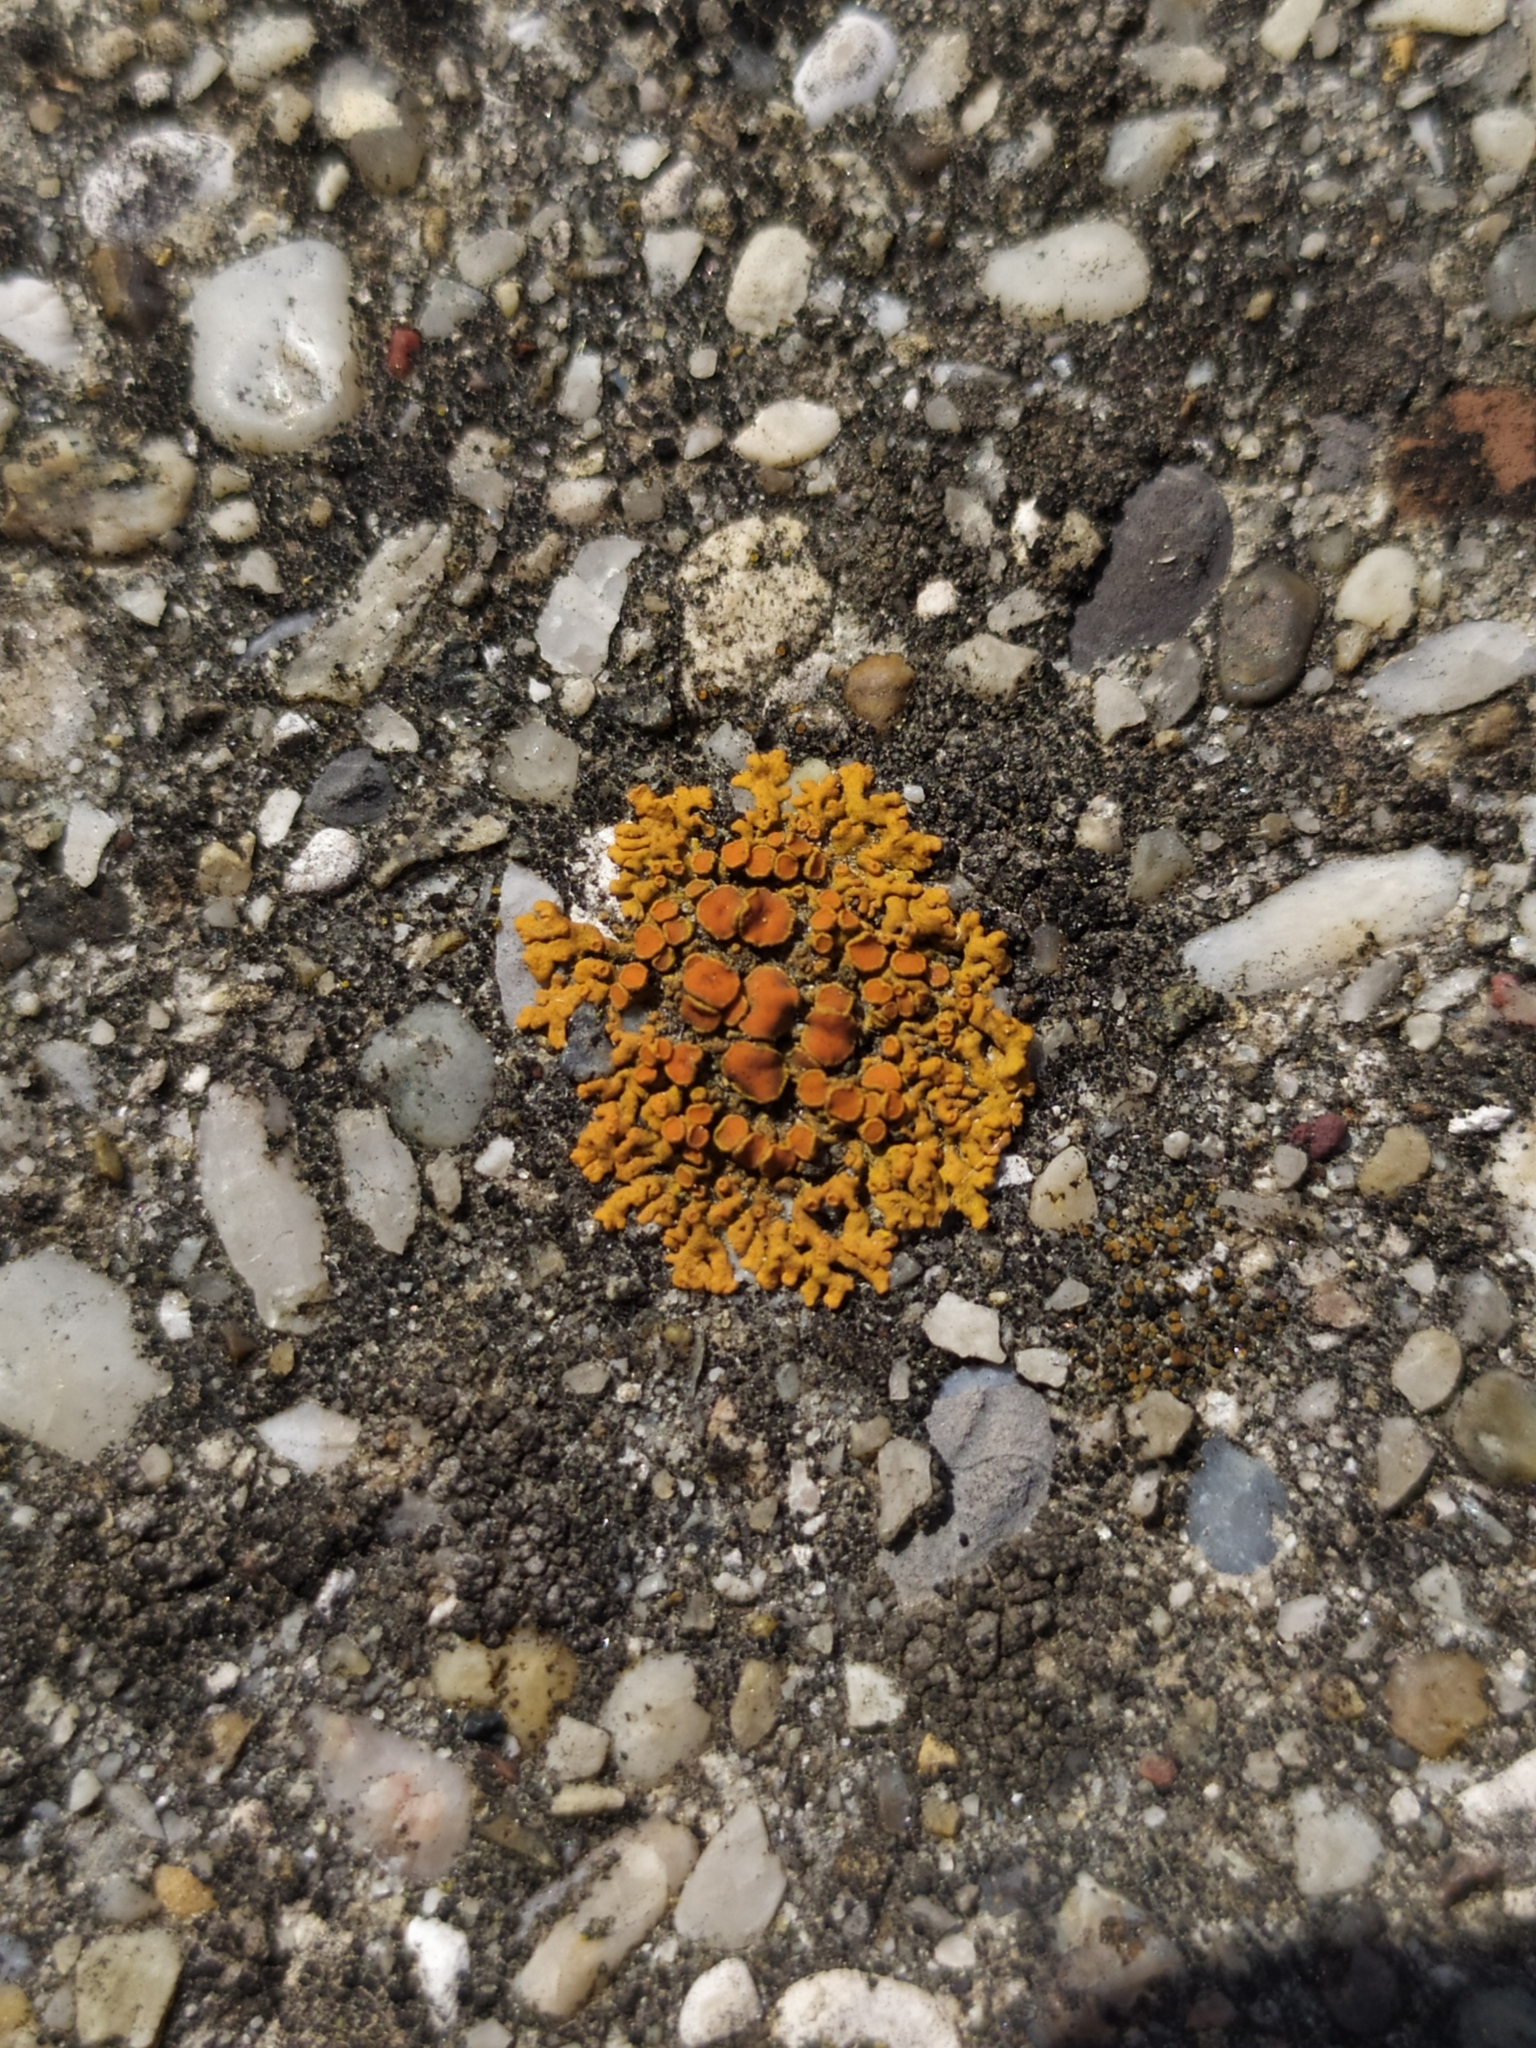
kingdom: Fungi
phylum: Ascomycota
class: Lecanoromycetes
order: Teloschistales
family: Teloschistaceae
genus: Xanthoria
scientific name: Xanthoria elegans
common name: Elegant sunburst lichen
